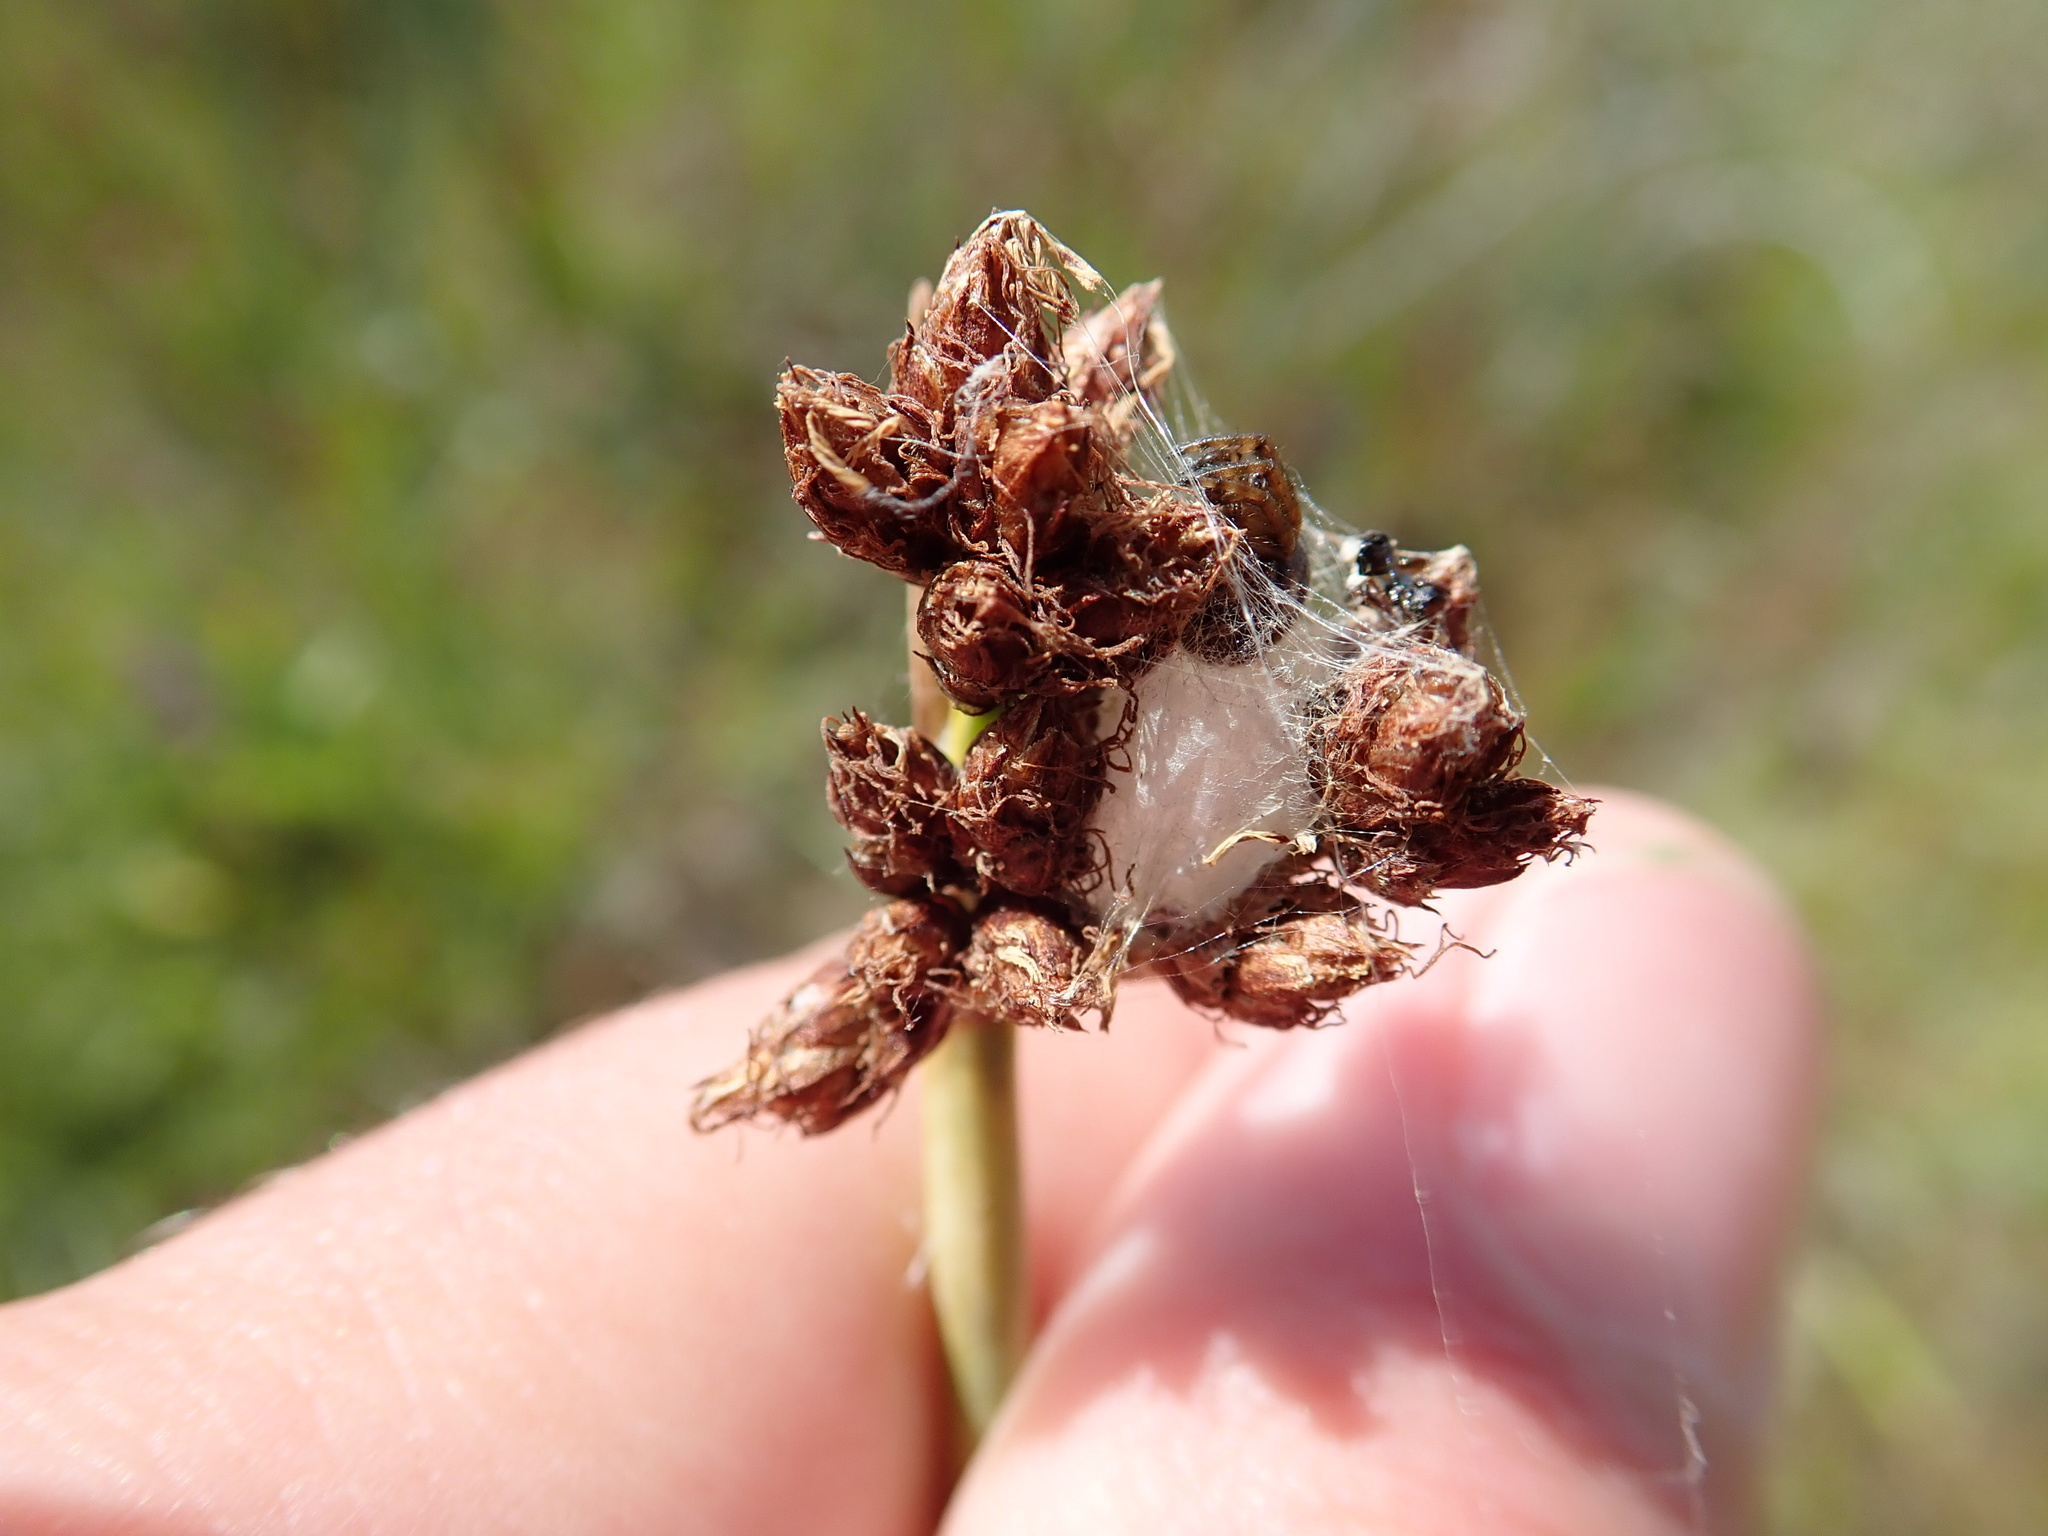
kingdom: Plantae
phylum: Tracheophyta
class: Liliopsida
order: Poales
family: Cyperaceae
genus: Schoenoplectus
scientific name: Schoenoplectus tabernaemontani
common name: Grey club-rush
